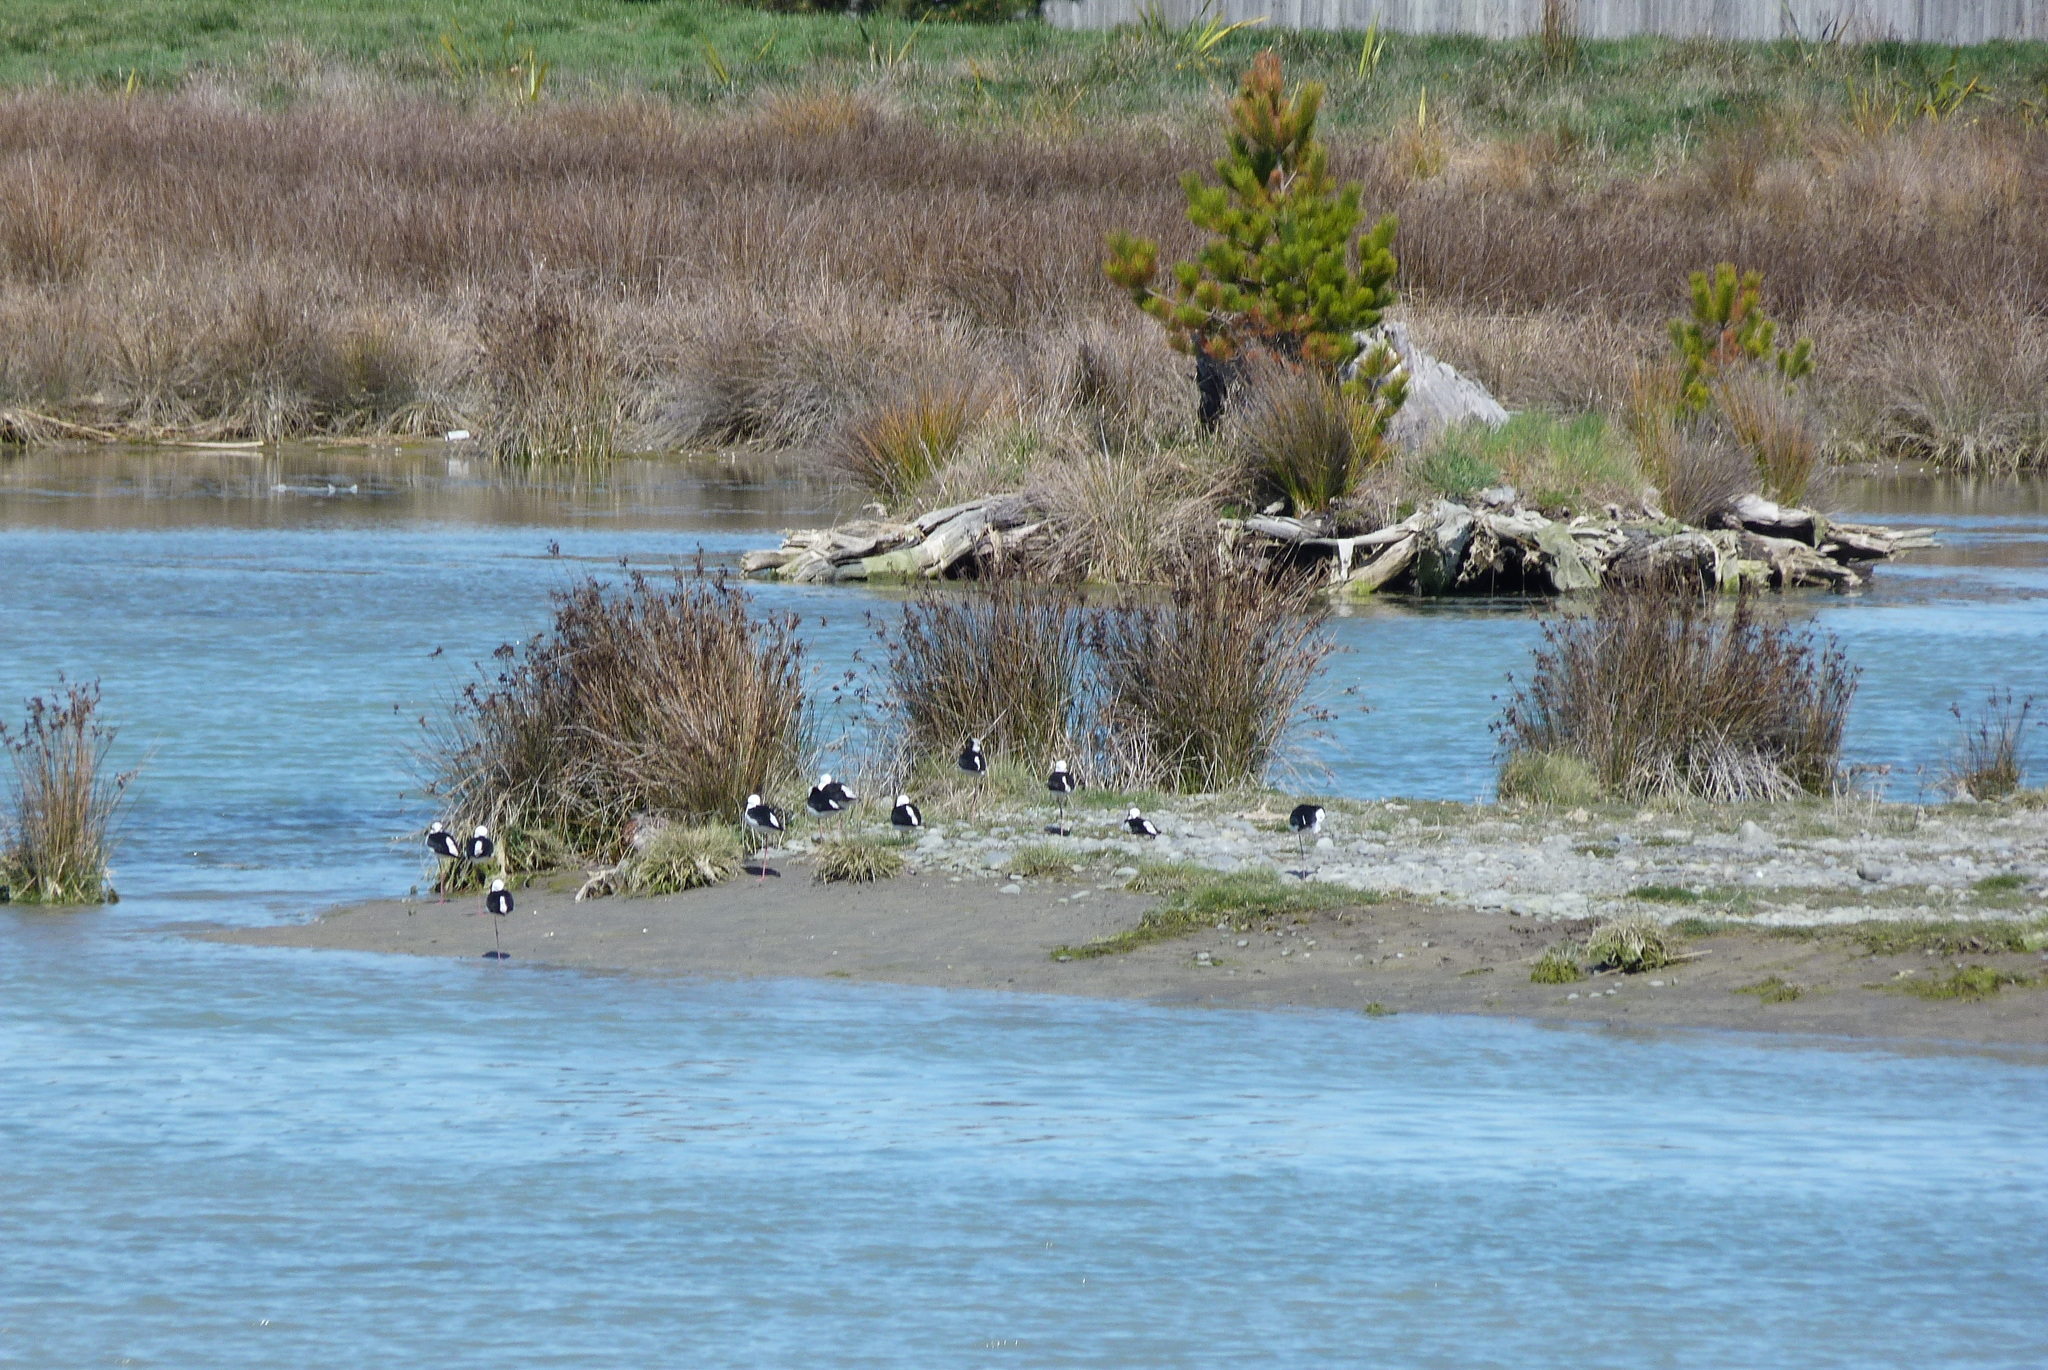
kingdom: Animalia
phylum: Chordata
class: Aves
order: Charadriiformes
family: Recurvirostridae
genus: Himantopus
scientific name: Himantopus leucocephalus
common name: White-headed stilt
